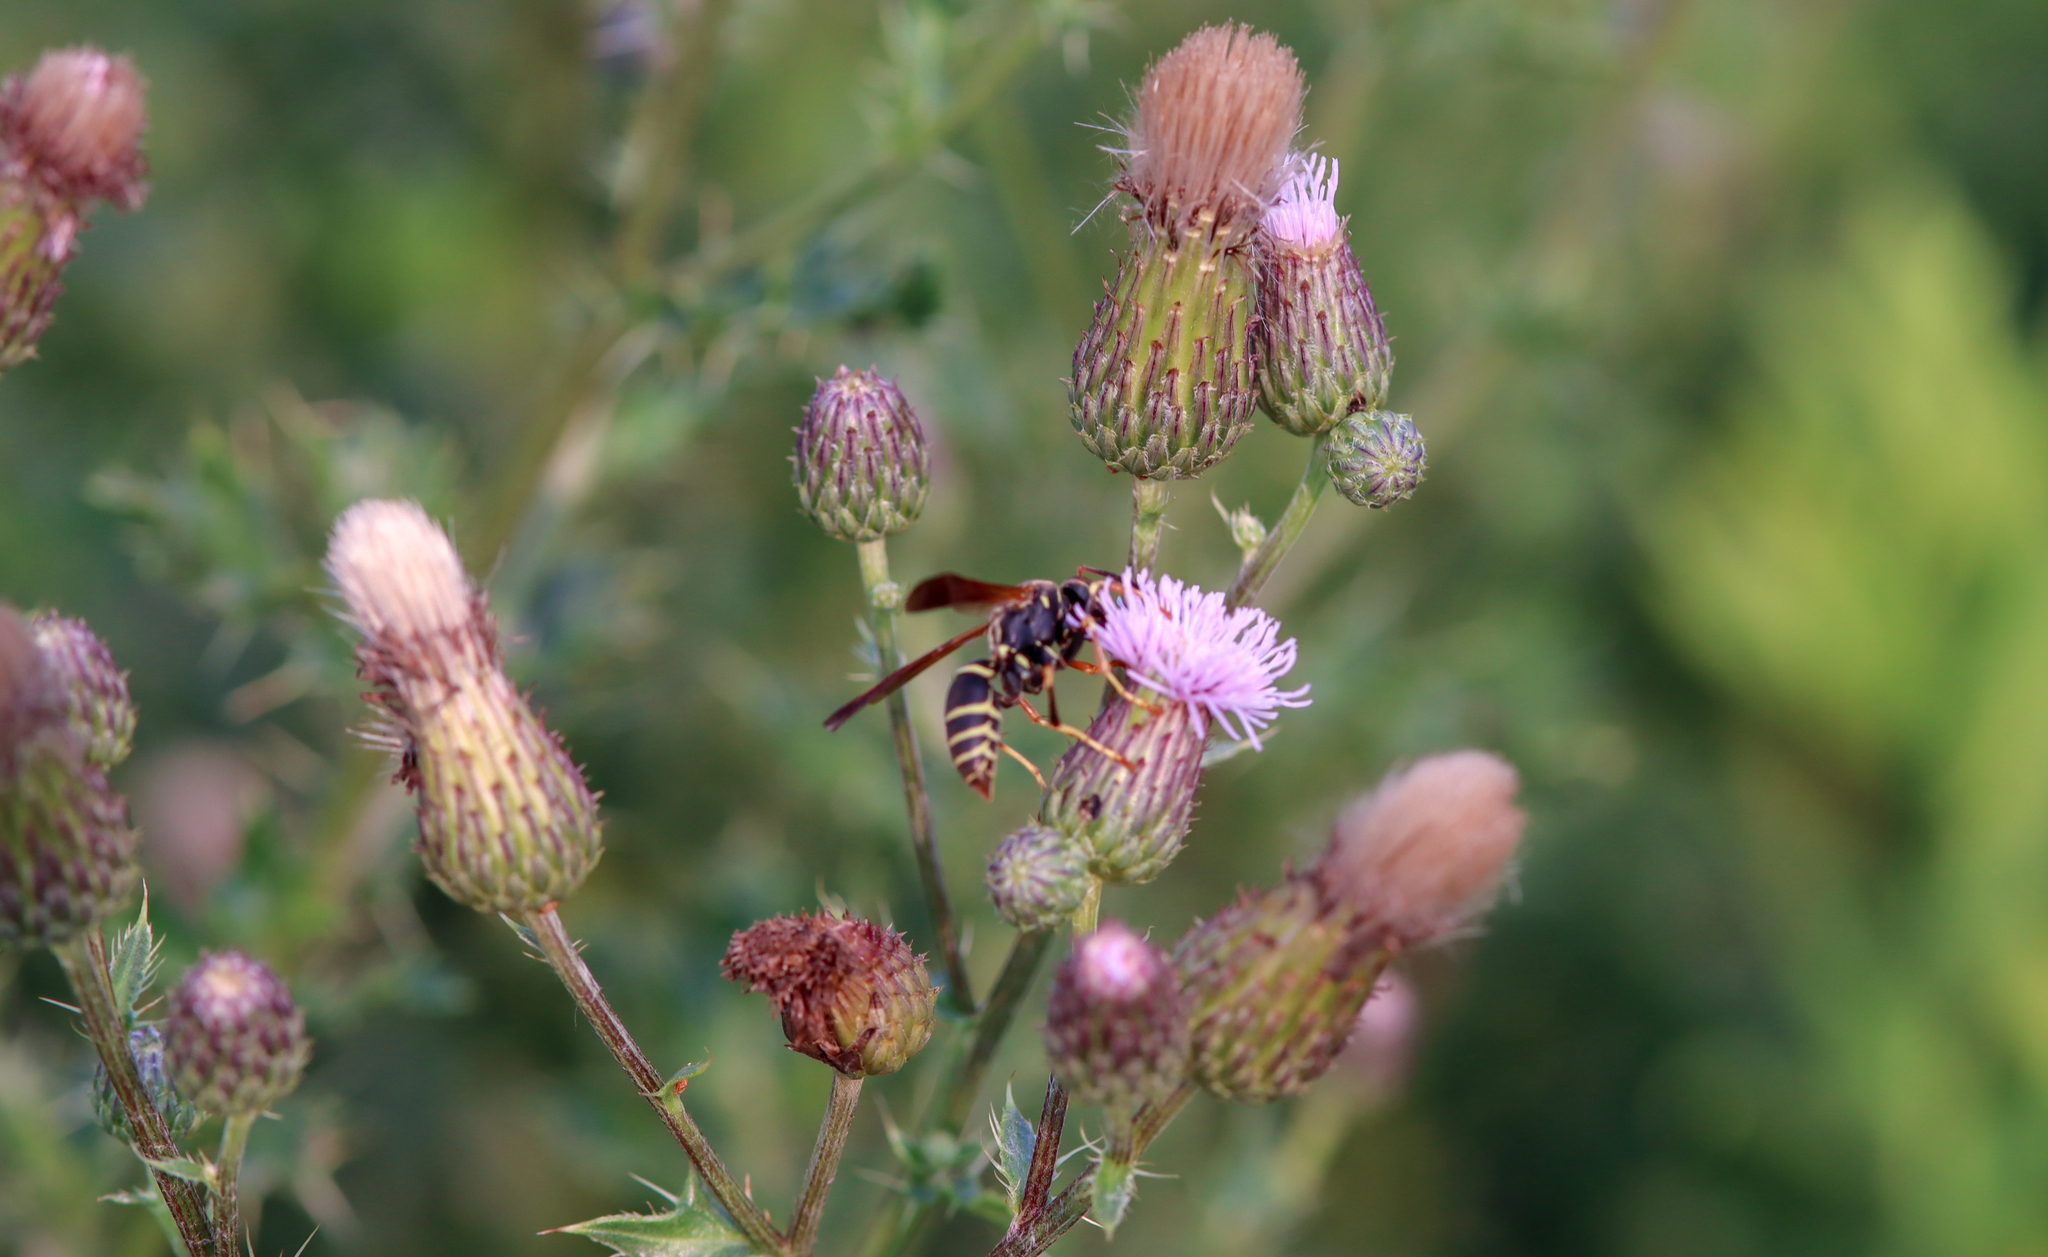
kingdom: Animalia
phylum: Arthropoda
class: Insecta
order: Hymenoptera
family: Eumenidae
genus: Polistes
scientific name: Polistes fuscatus
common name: Dark paper wasp
